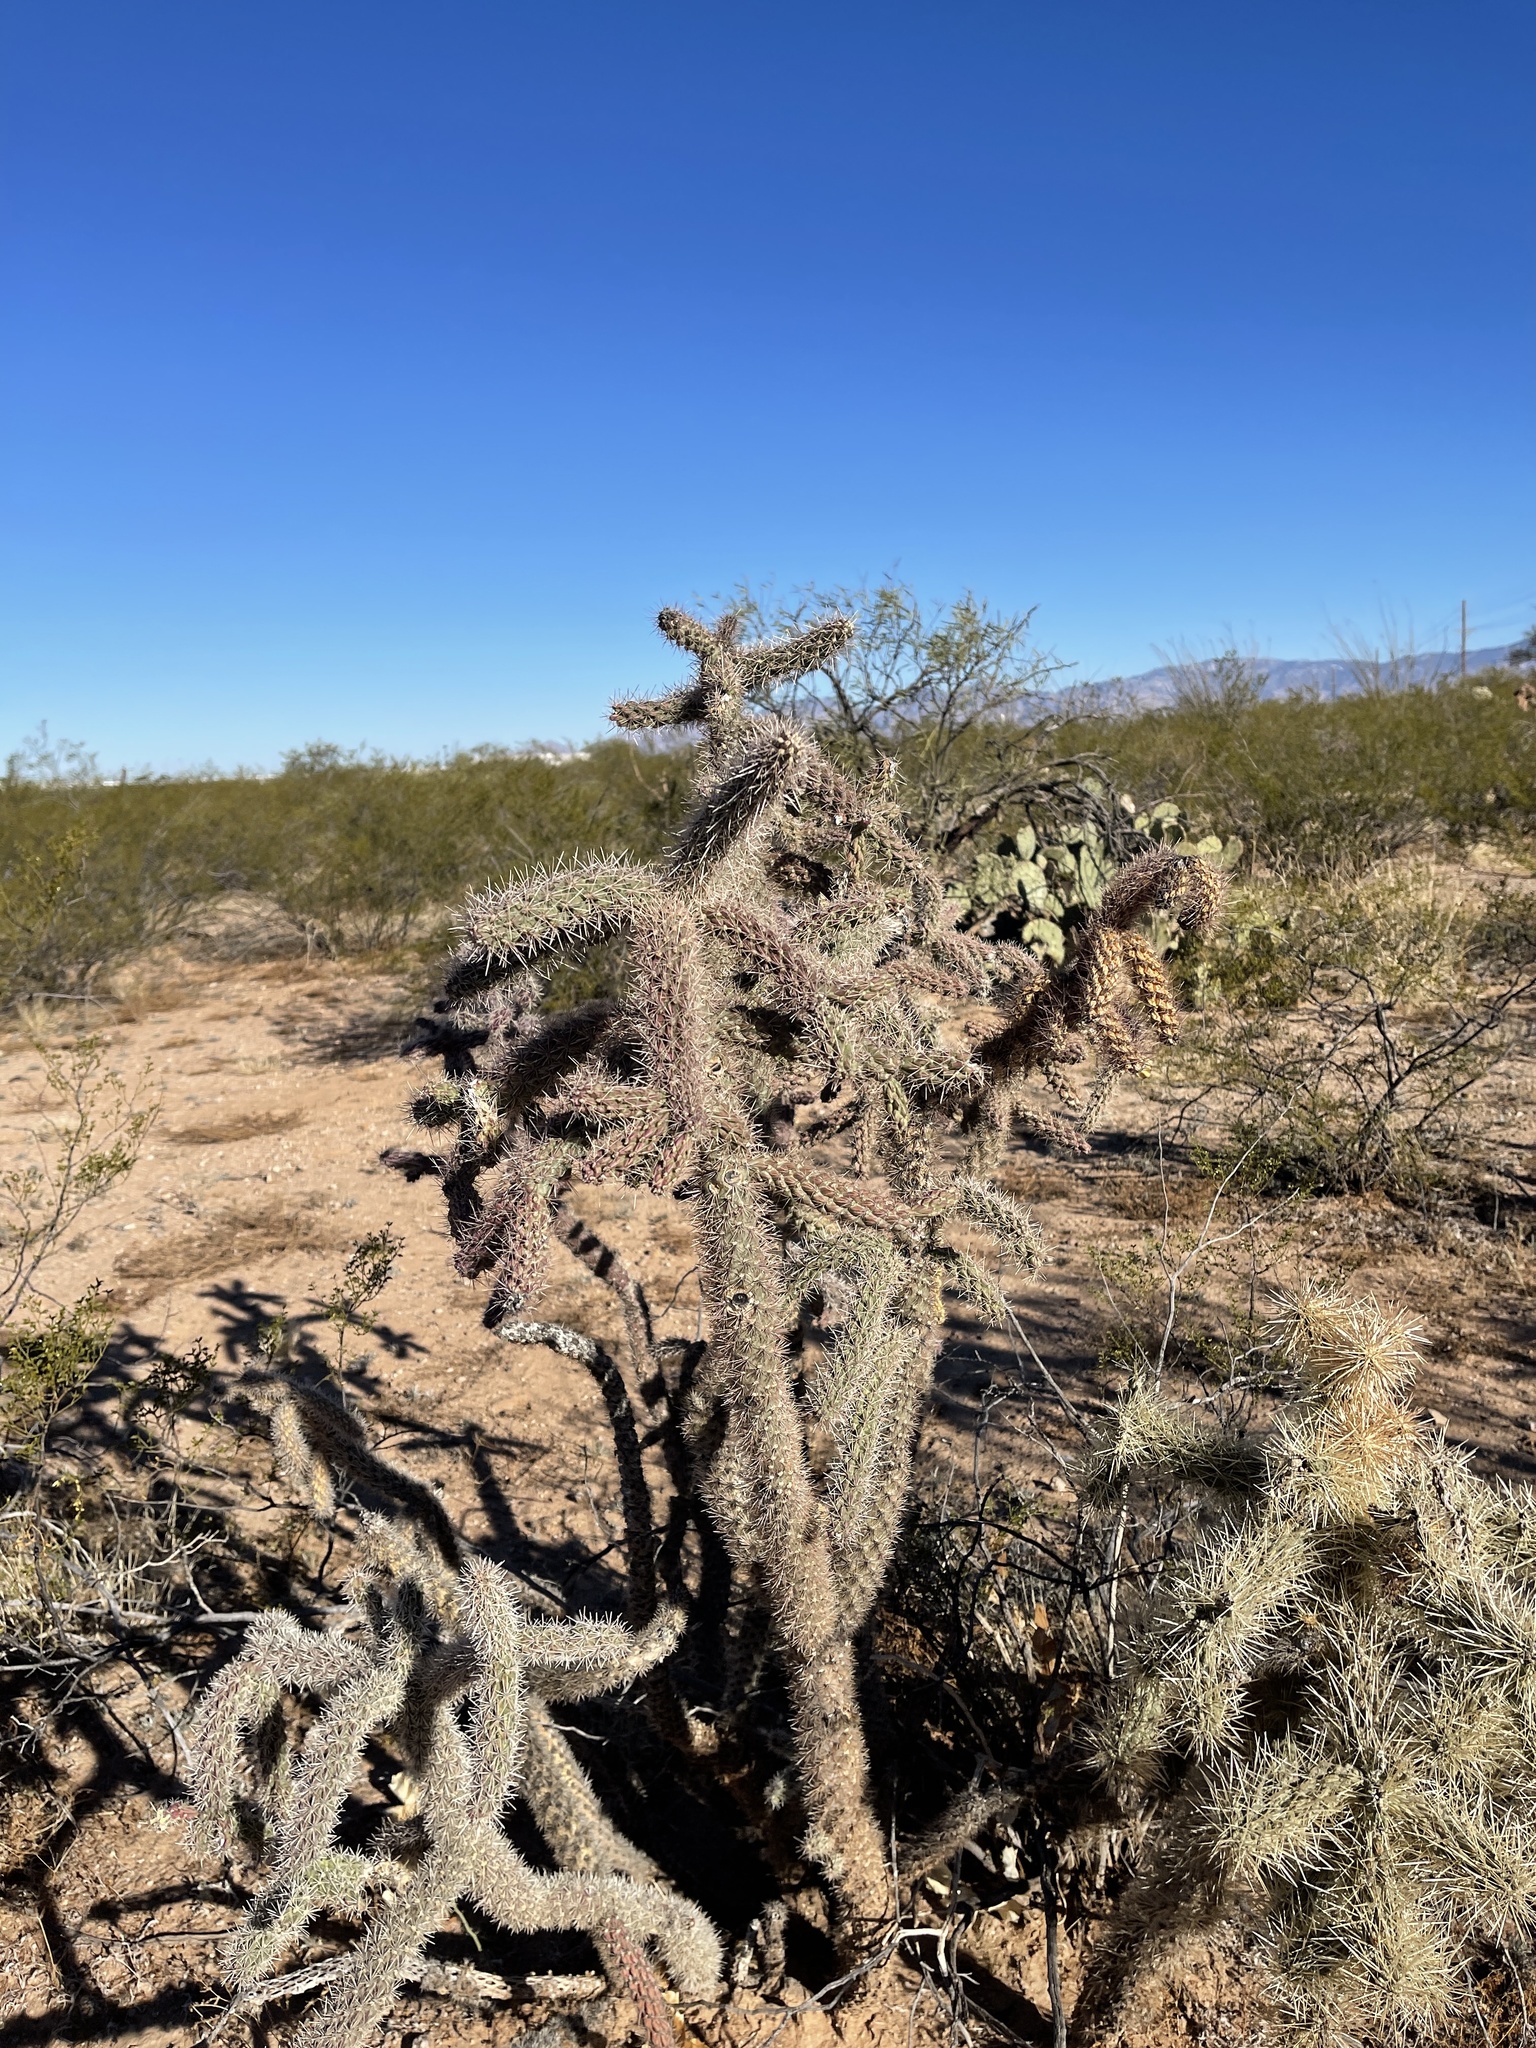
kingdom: Plantae
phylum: Tracheophyta
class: Magnoliopsida
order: Caryophyllales
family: Cactaceae
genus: Cylindropuntia
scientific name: Cylindropuntia imbricata
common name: Candelabrum cactus
